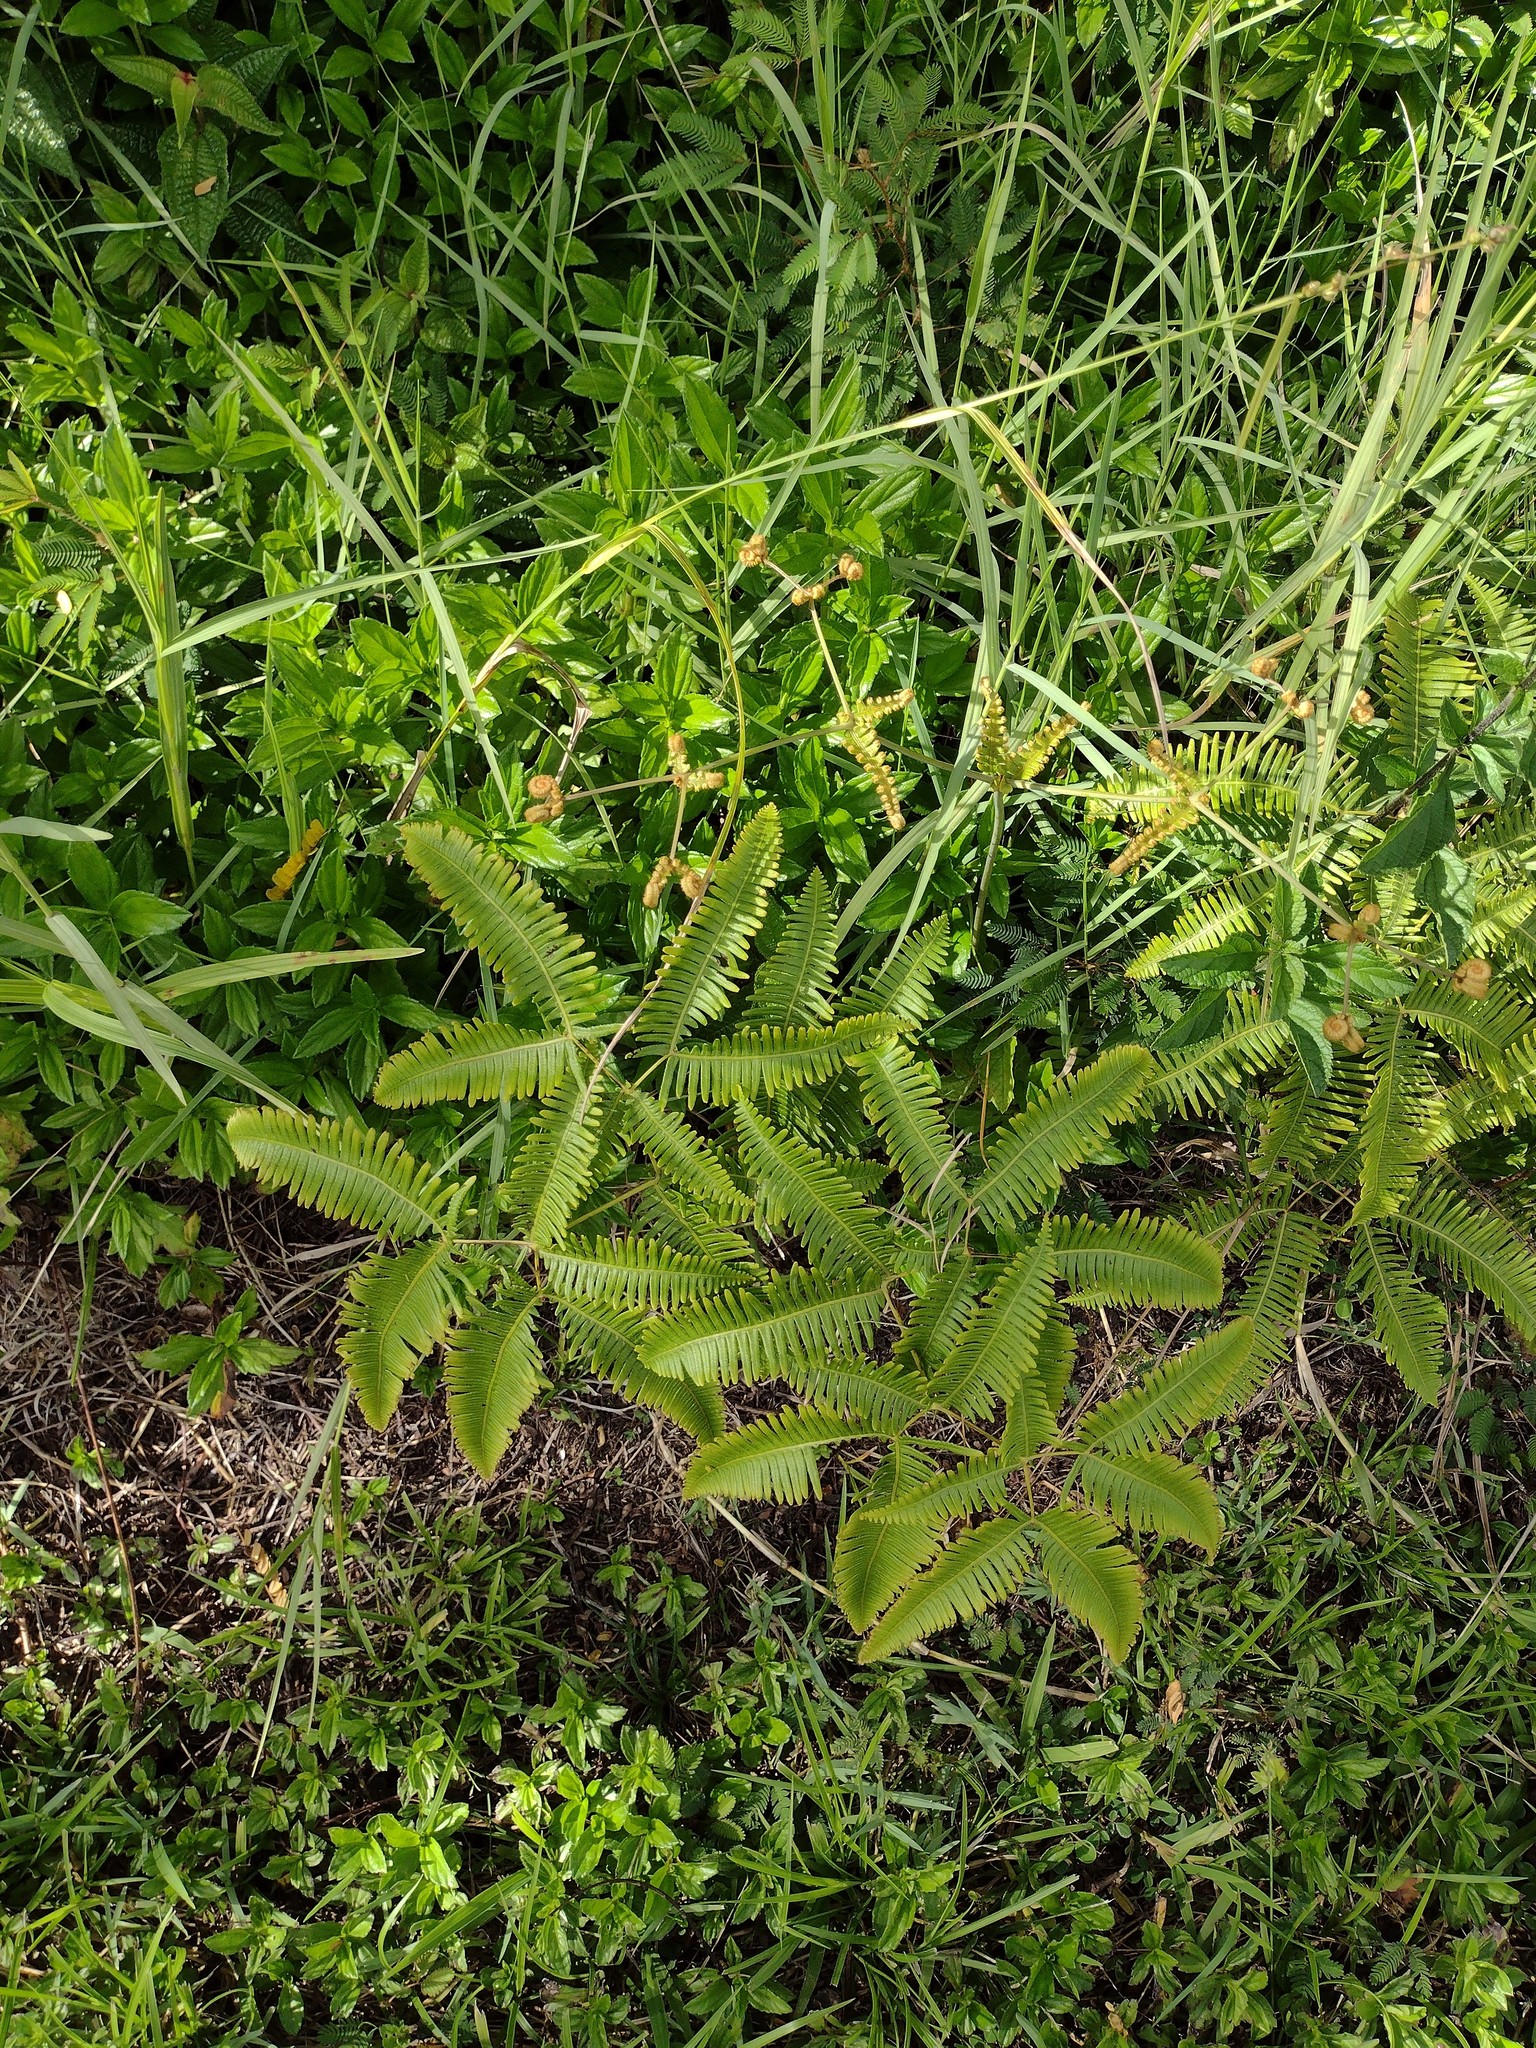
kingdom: Plantae
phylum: Tracheophyta
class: Polypodiopsida
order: Gleicheniales
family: Gleicheniaceae
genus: Dicranopteris
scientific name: Dicranopteris linearis
